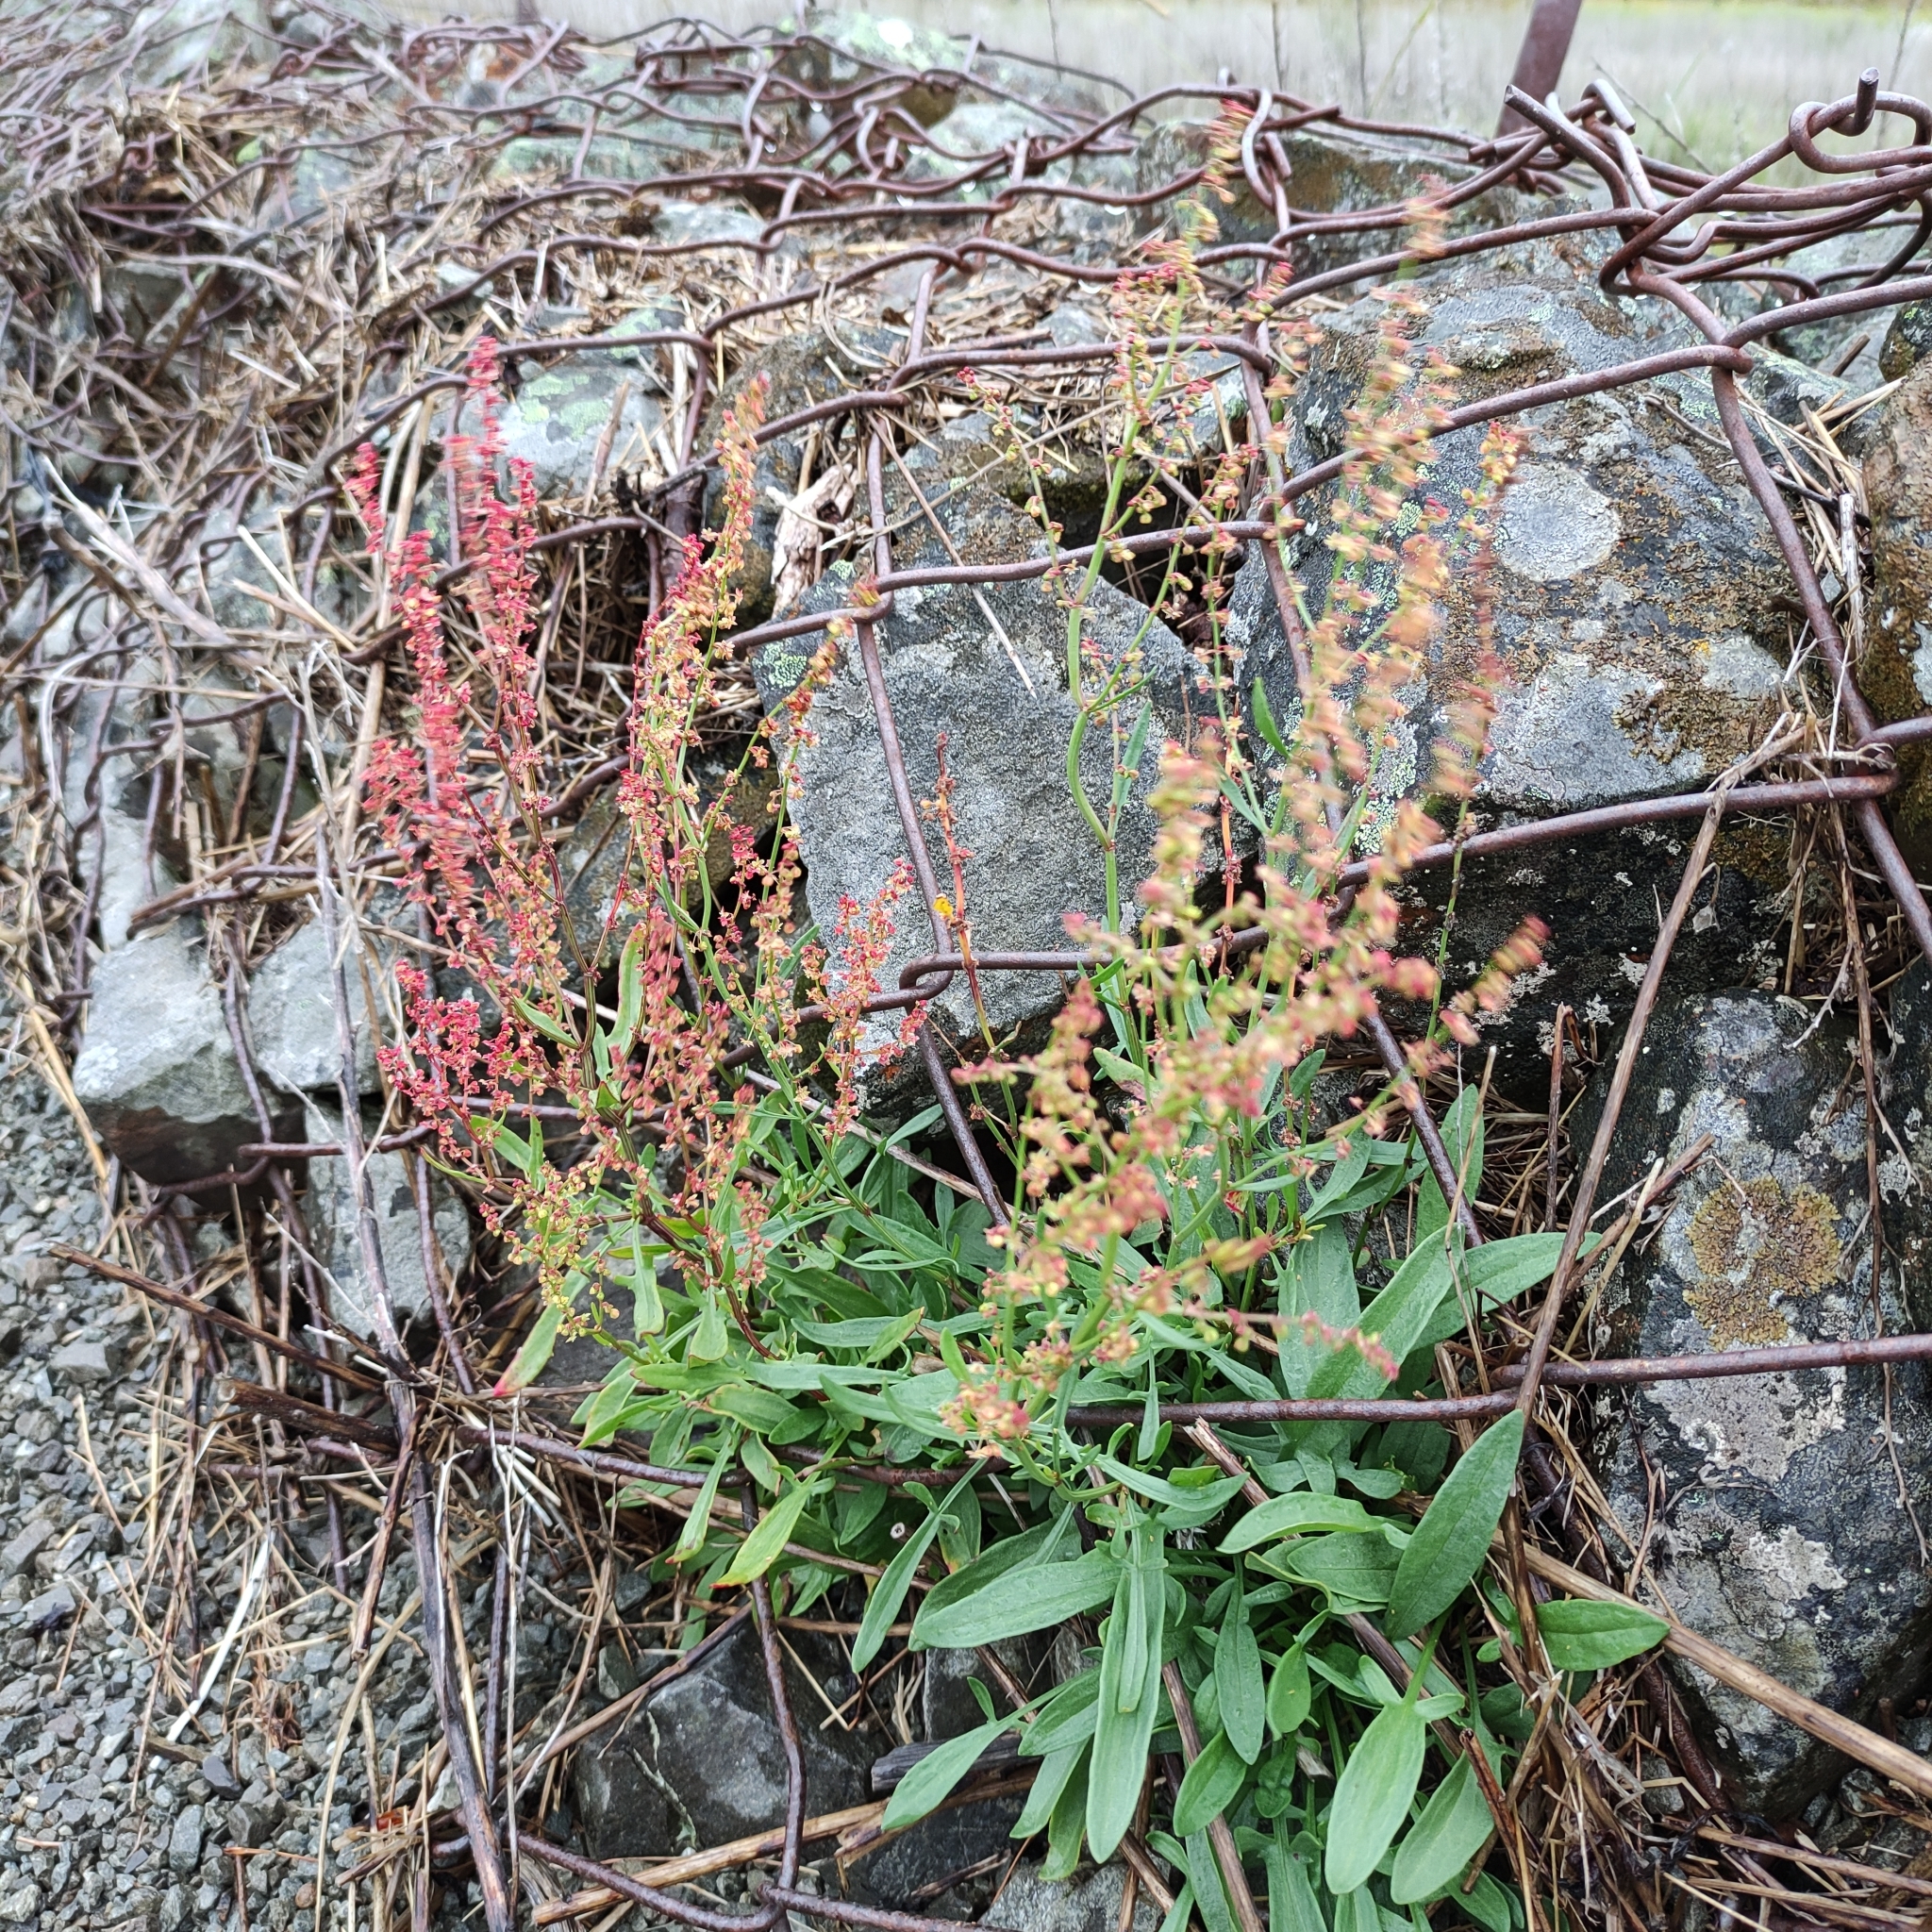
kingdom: Plantae
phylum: Tracheophyta
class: Magnoliopsida
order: Caryophyllales
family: Polygonaceae
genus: Rumex
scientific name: Rumex acetosella
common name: Common sheep sorrel
